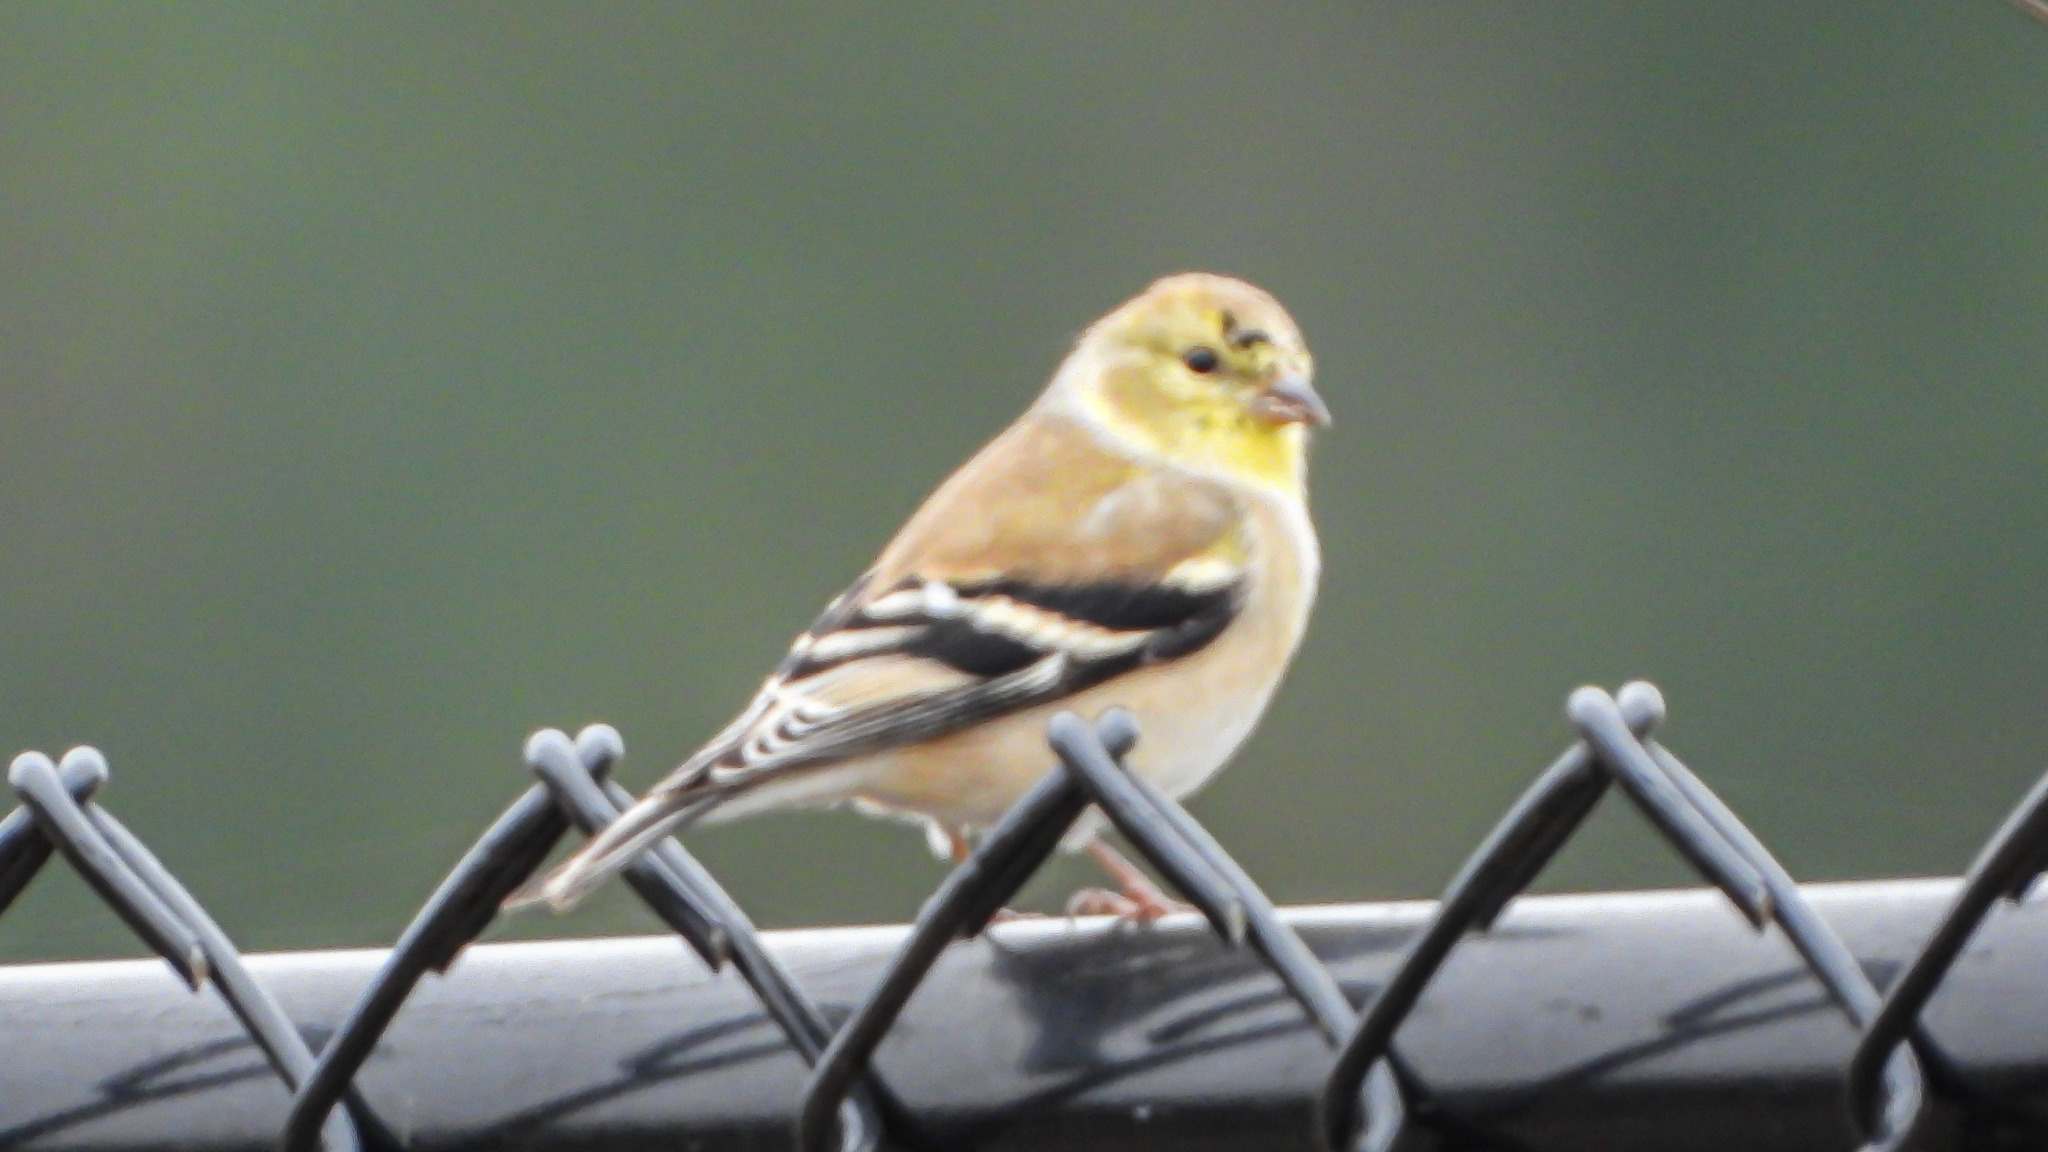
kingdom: Animalia
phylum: Chordata
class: Aves
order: Passeriformes
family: Fringillidae
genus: Spinus
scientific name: Spinus tristis
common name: American goldfinch
